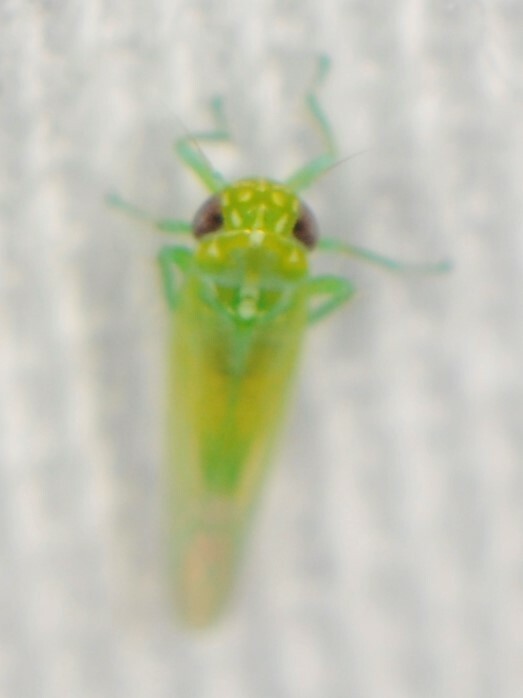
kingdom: Animalia
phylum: Arthropoda
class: Insecta
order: Hemiptera
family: Cicadellidae
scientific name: Cicadellidae
